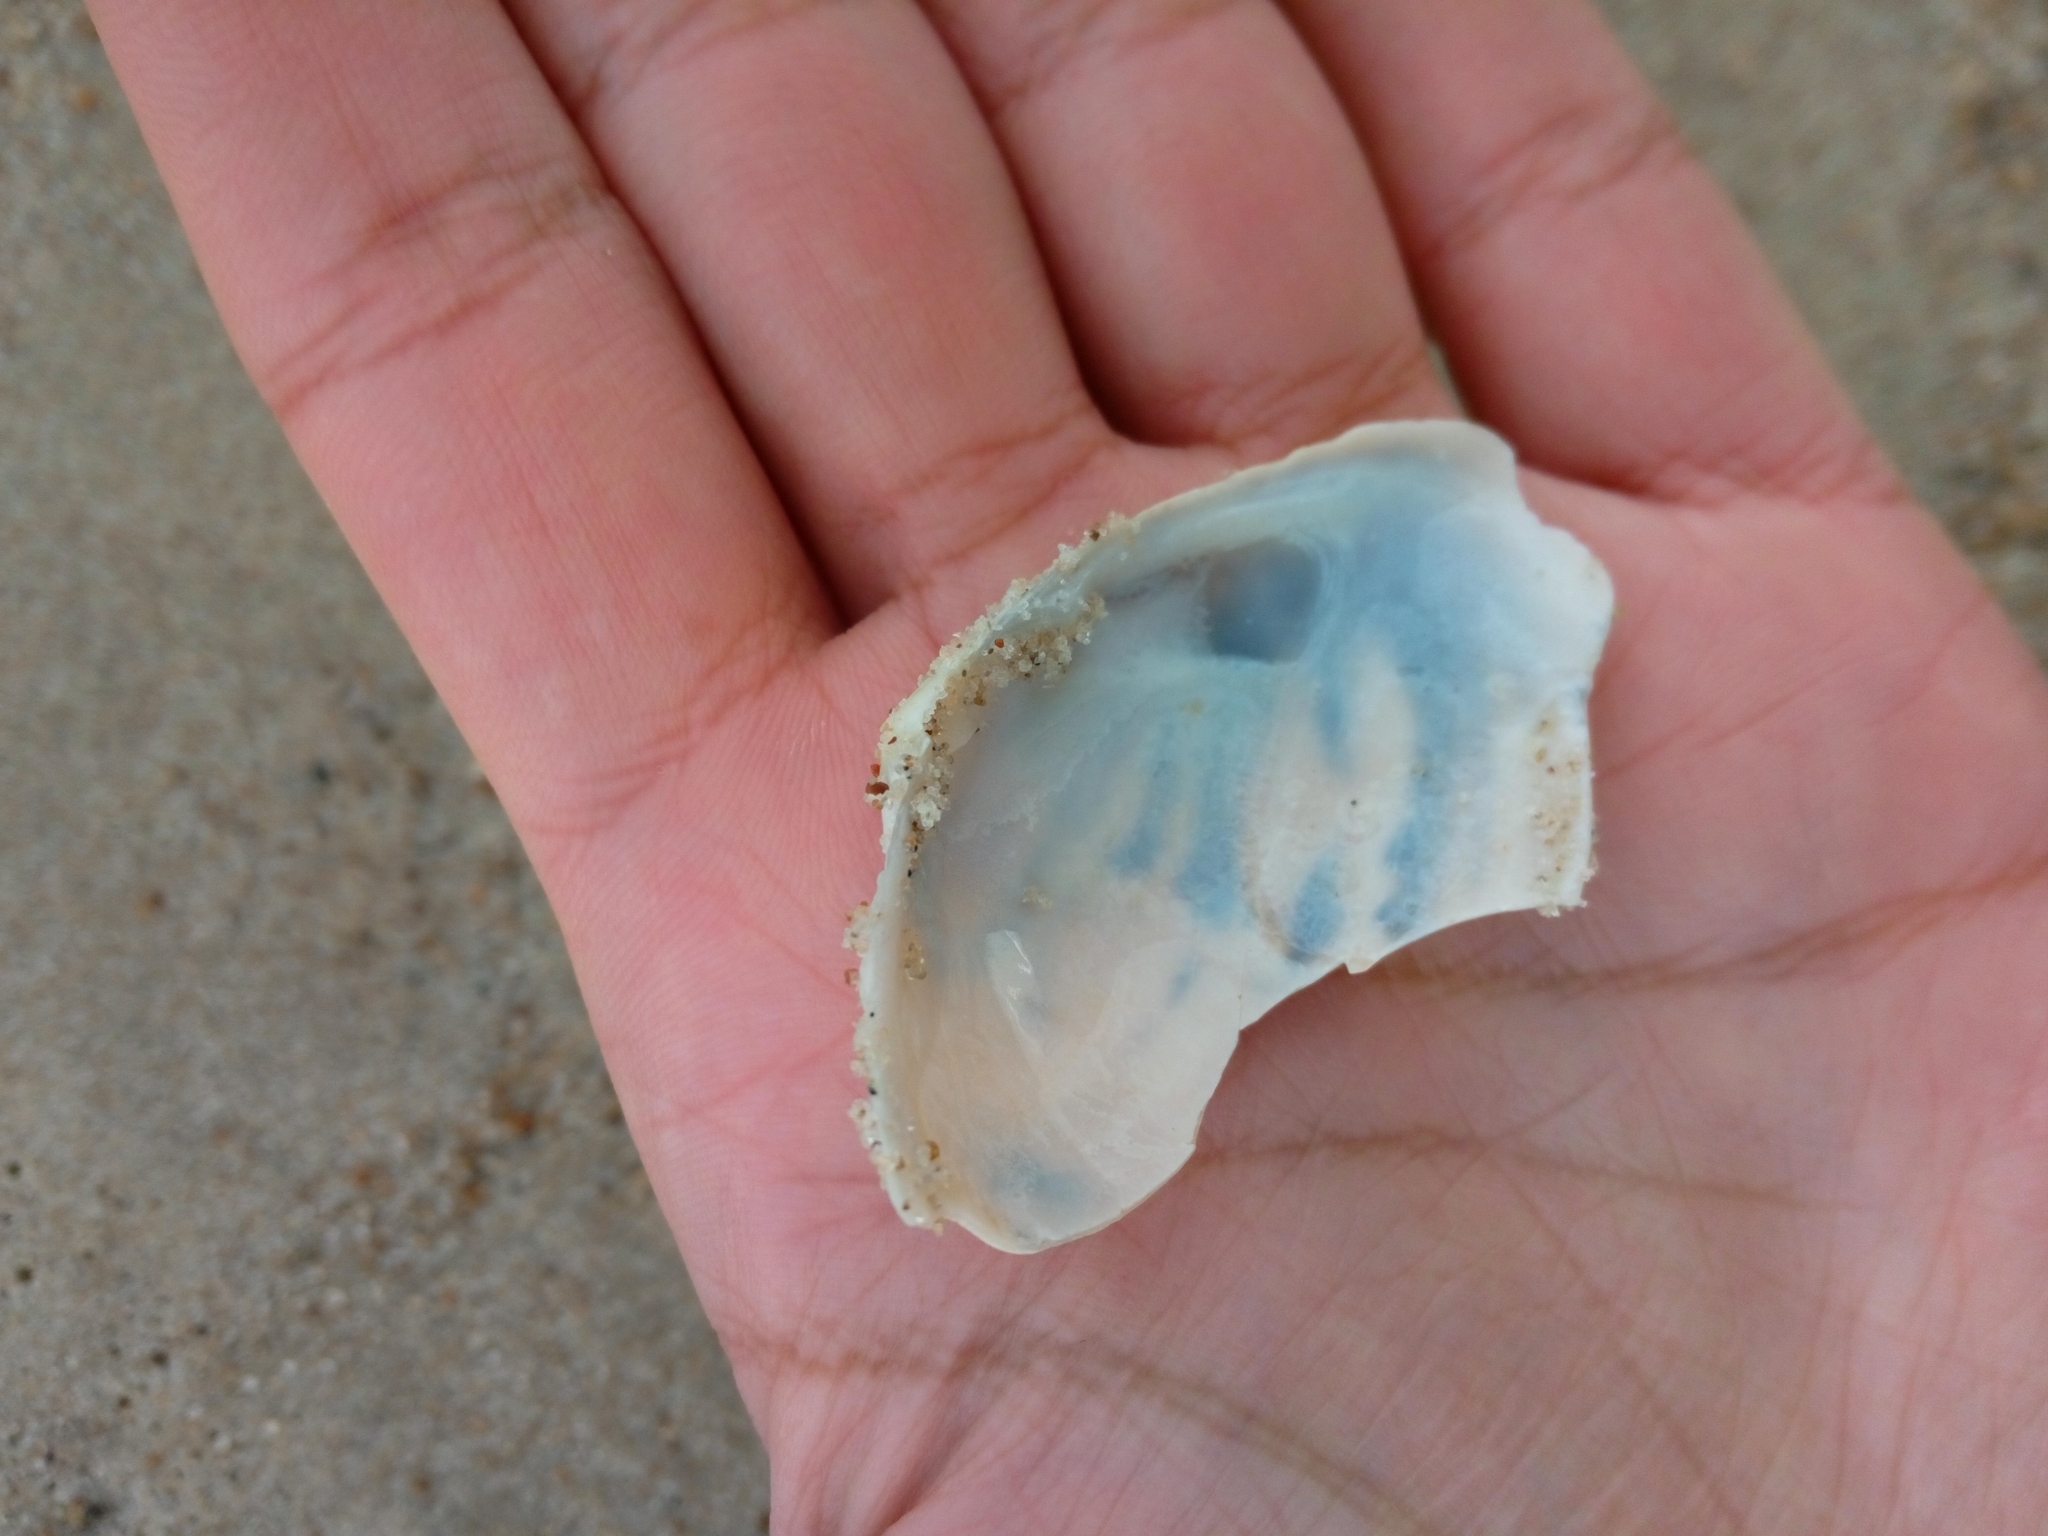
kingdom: Animalia
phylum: Mollusca
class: Bivalvia
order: Myida
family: Myidae
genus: Mya
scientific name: Mya arenaria
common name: Soft-shelled clam
